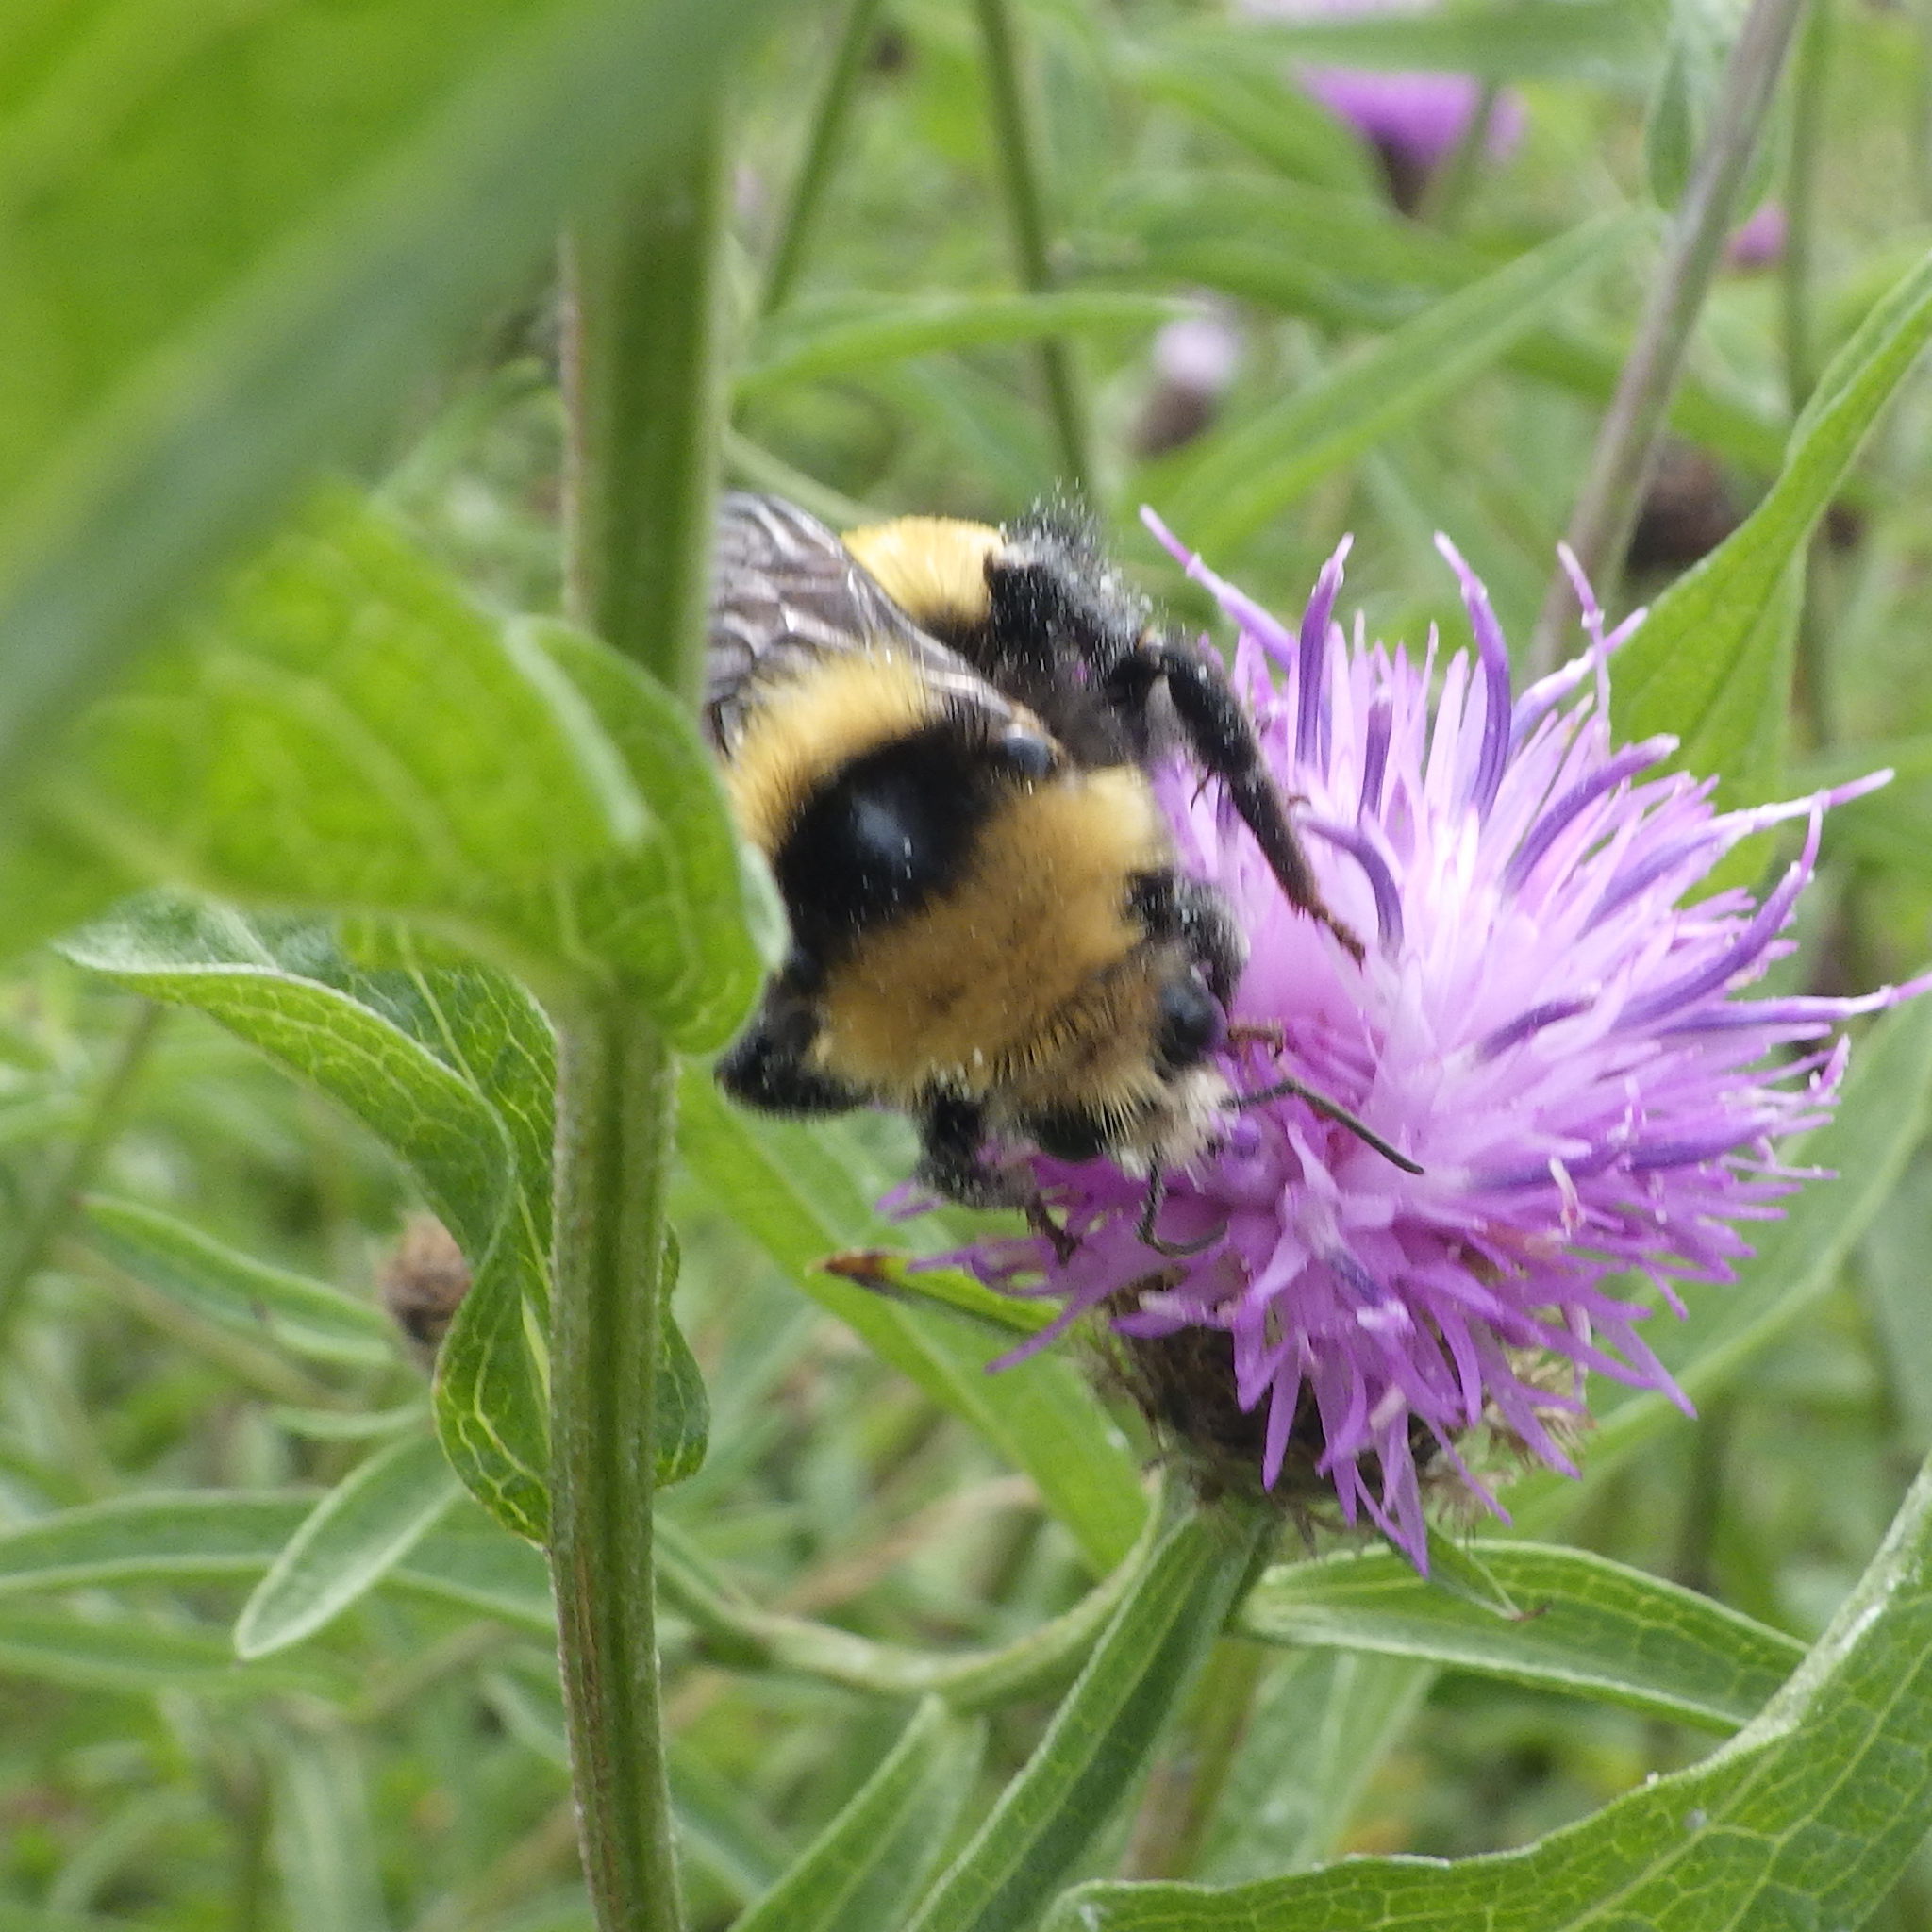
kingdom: Animalia
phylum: Arthropoda
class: Insecta
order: Hymenoptera
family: Apidae
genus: Bombus
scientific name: Bombus borealis
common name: Northern amber bumble bee
